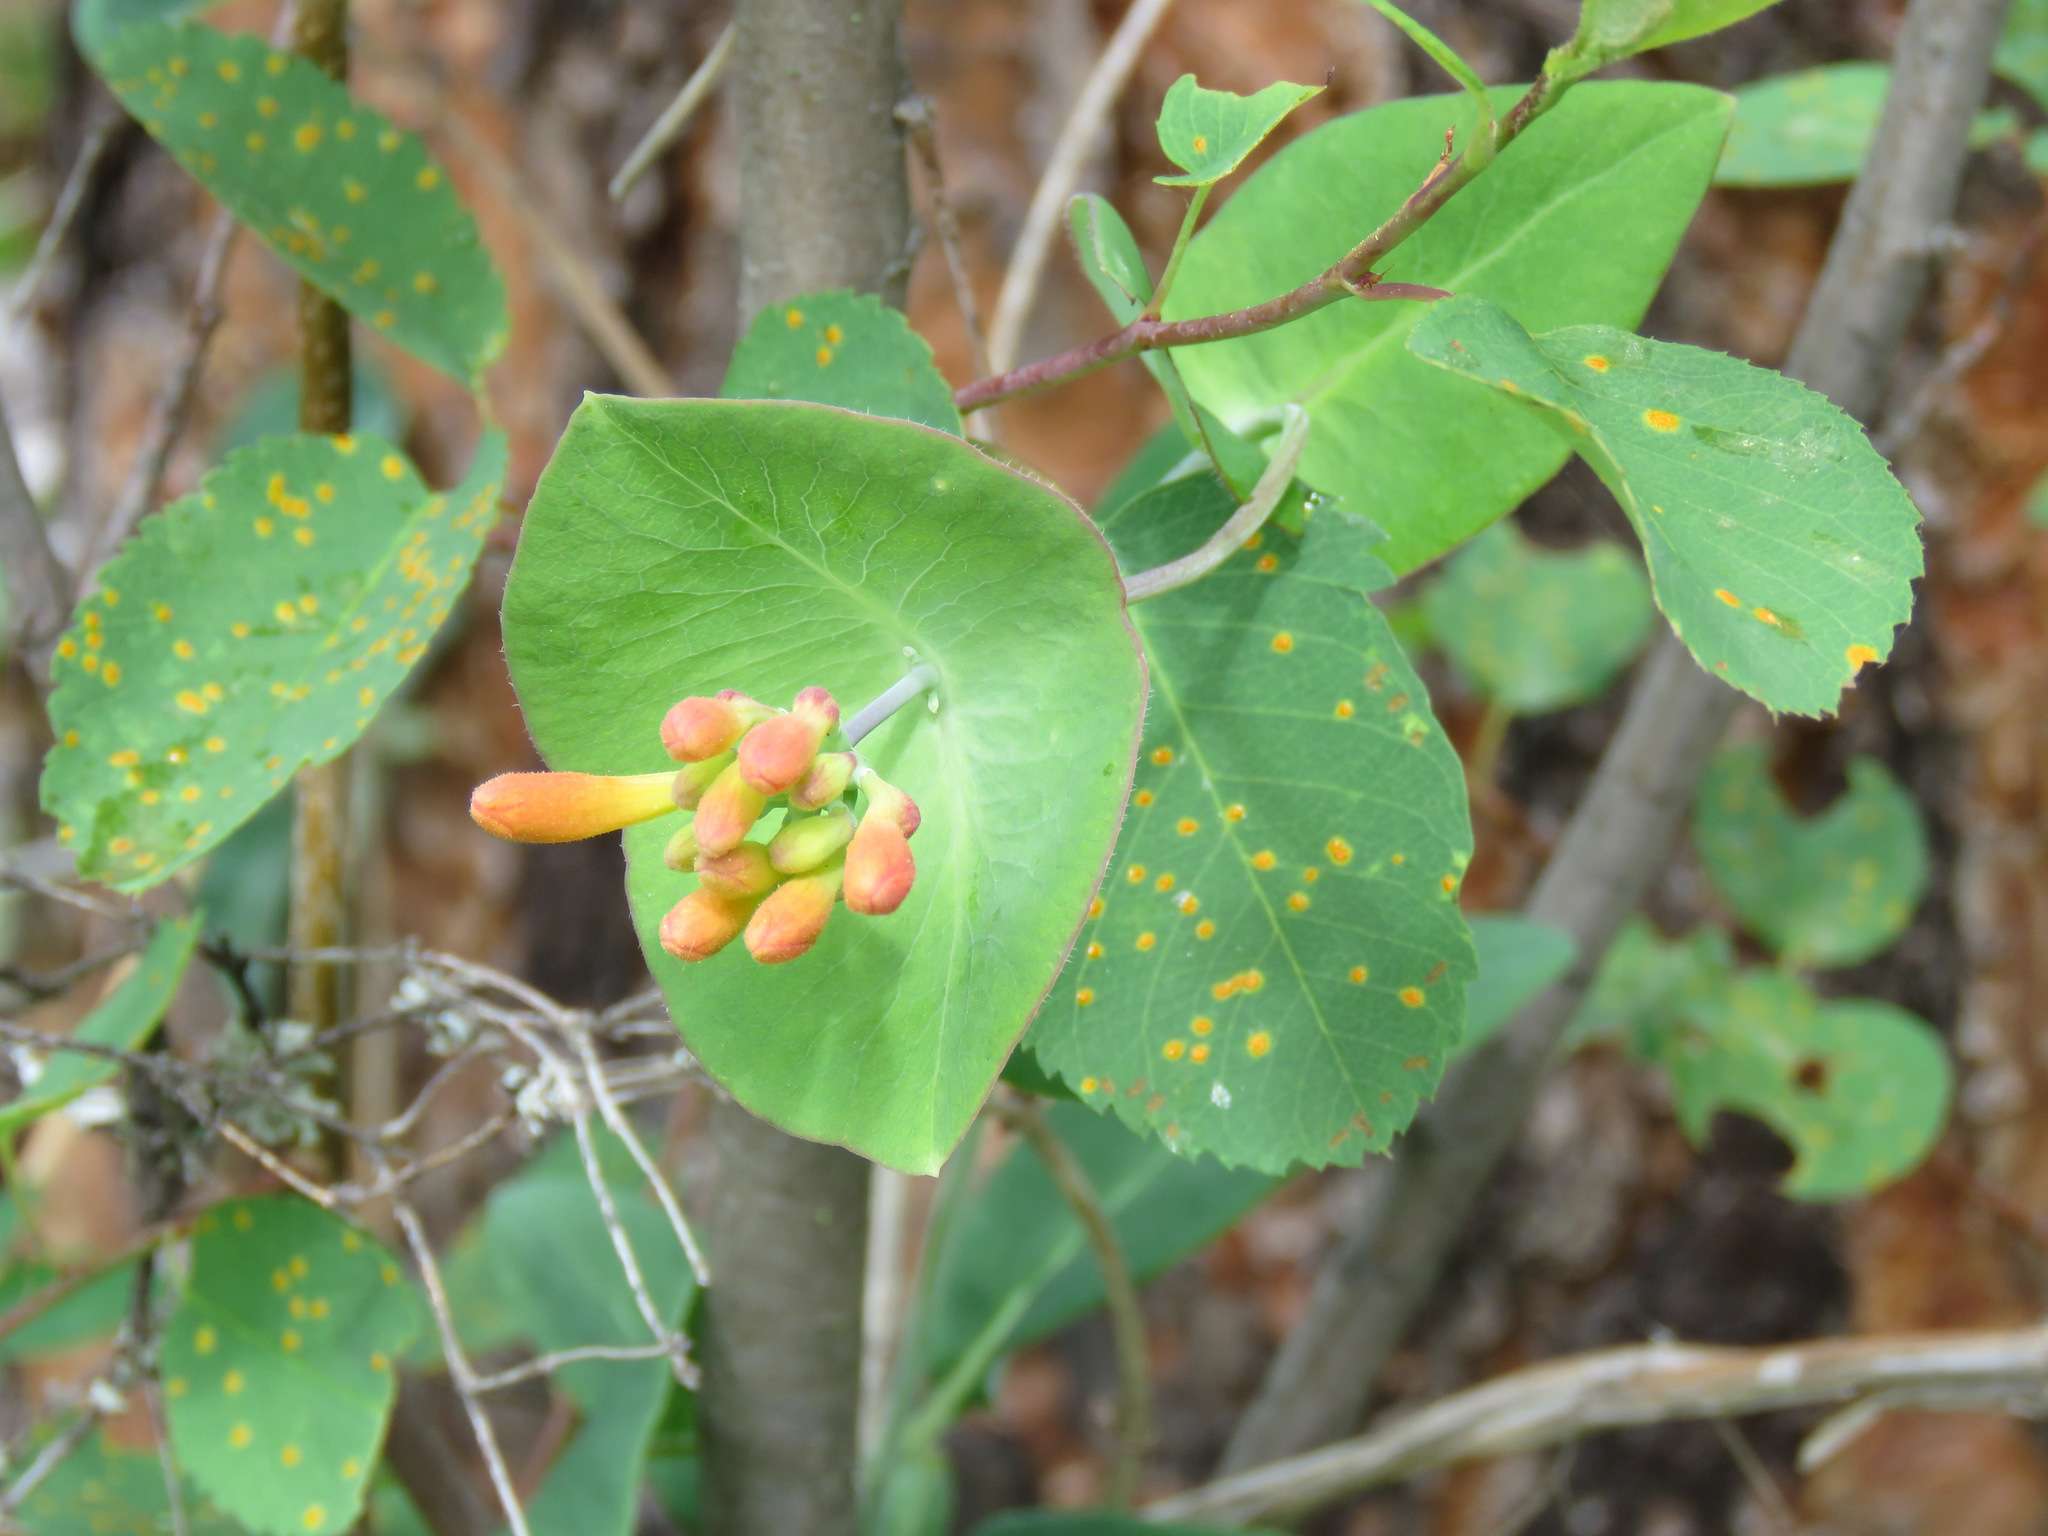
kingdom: Plantae
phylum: Tracheophyta
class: Magnoliopsida
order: Dipsacales
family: Caprifoliaceae
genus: Lonicera
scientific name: Lonicera ciliosa
